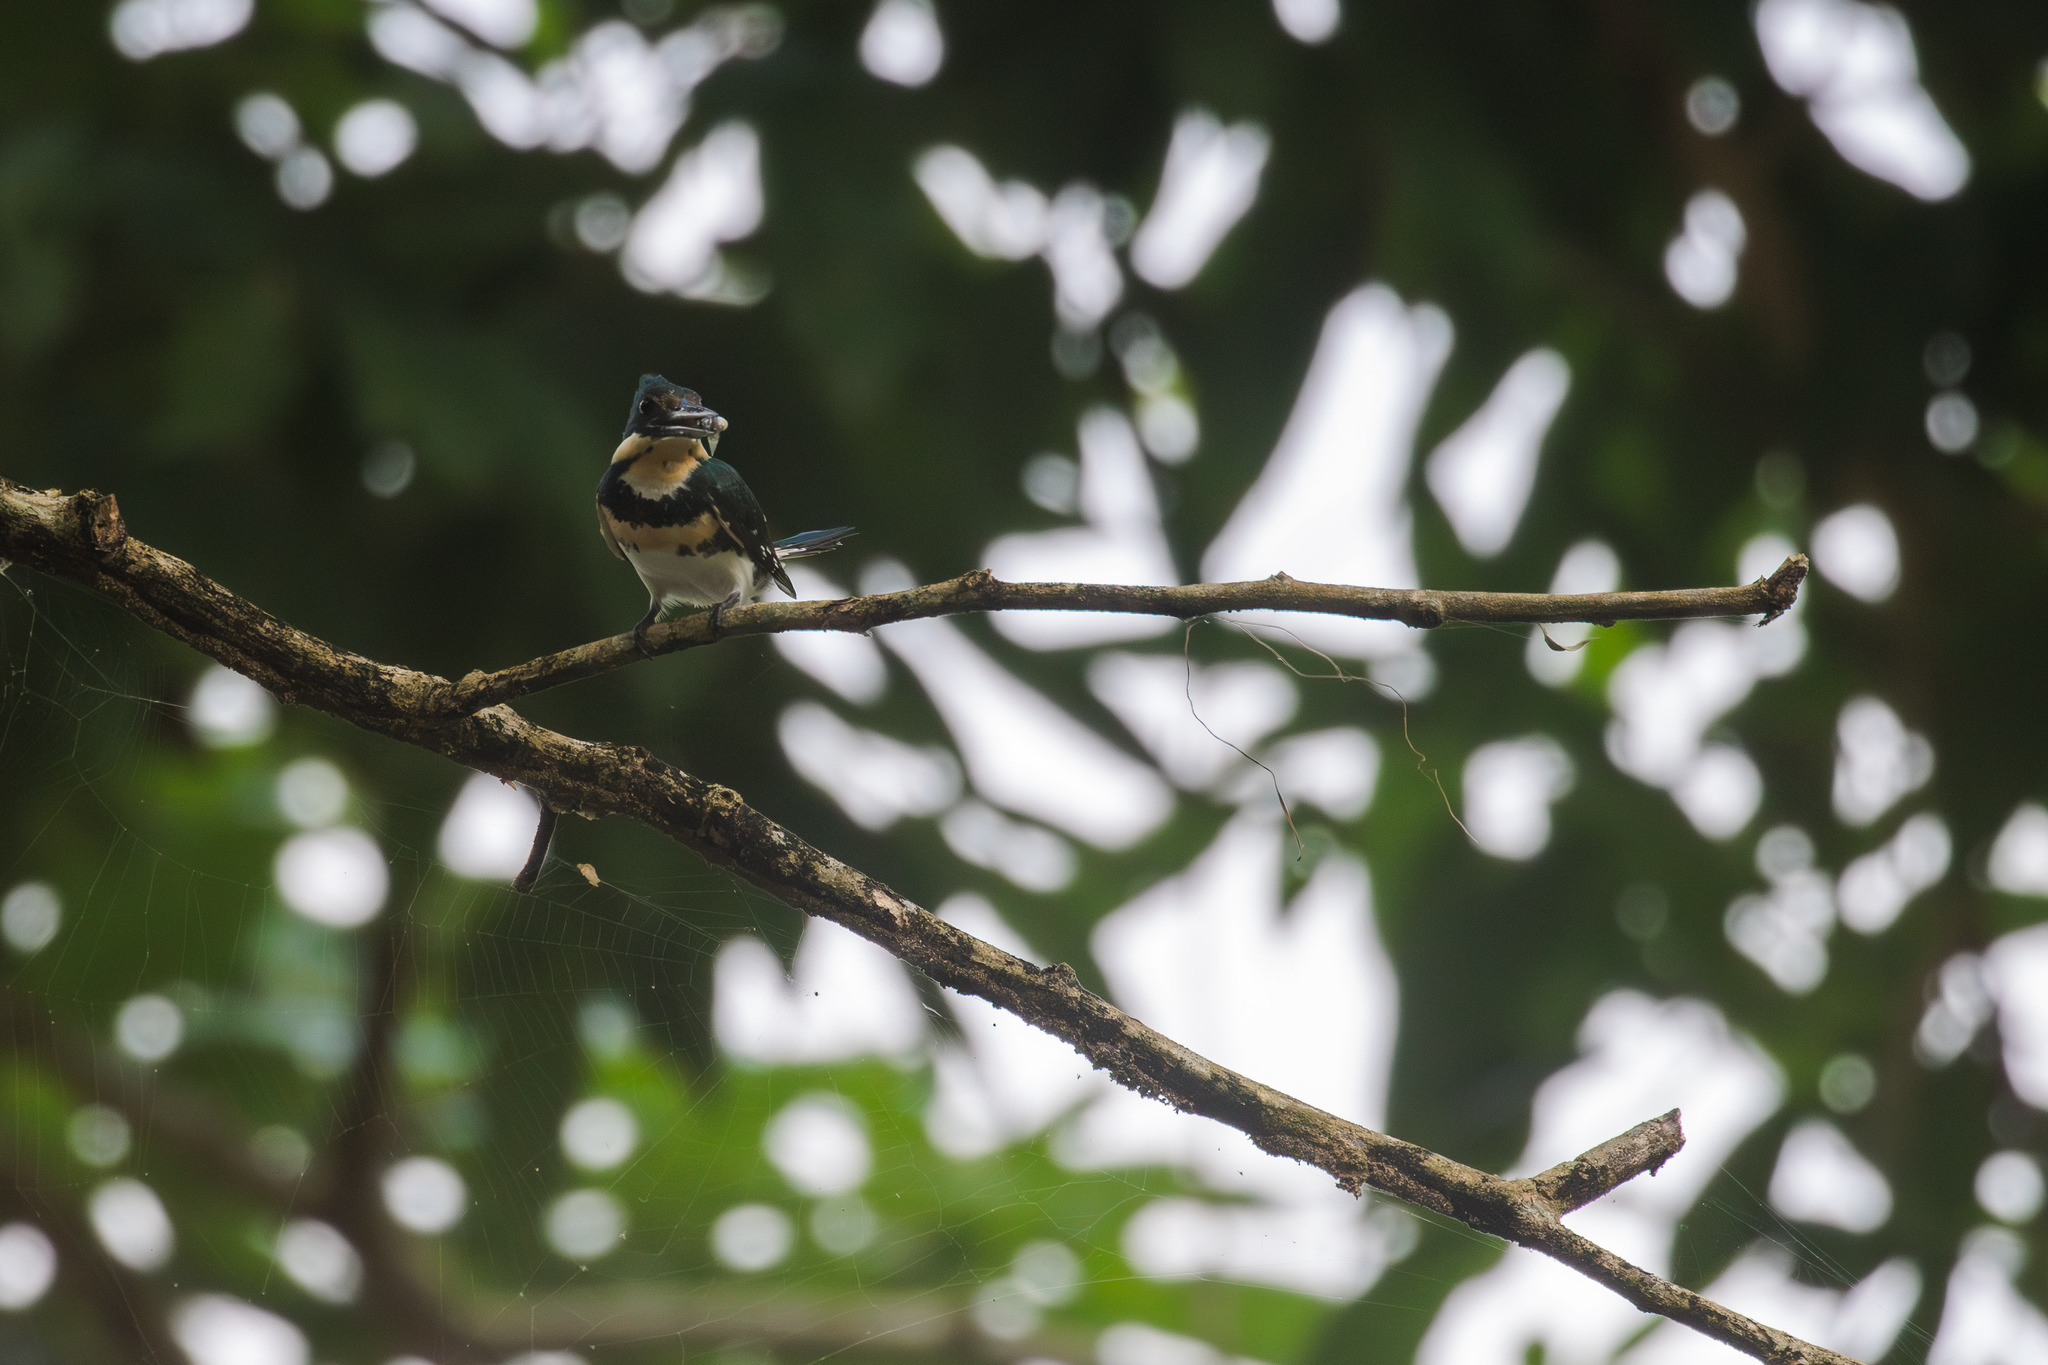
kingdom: Animalia
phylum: Chordata
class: Aves
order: Coraciiformes
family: Alcedinidae
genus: Chloroceryle
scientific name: Chloroceryle americana
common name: Green kingfisher
